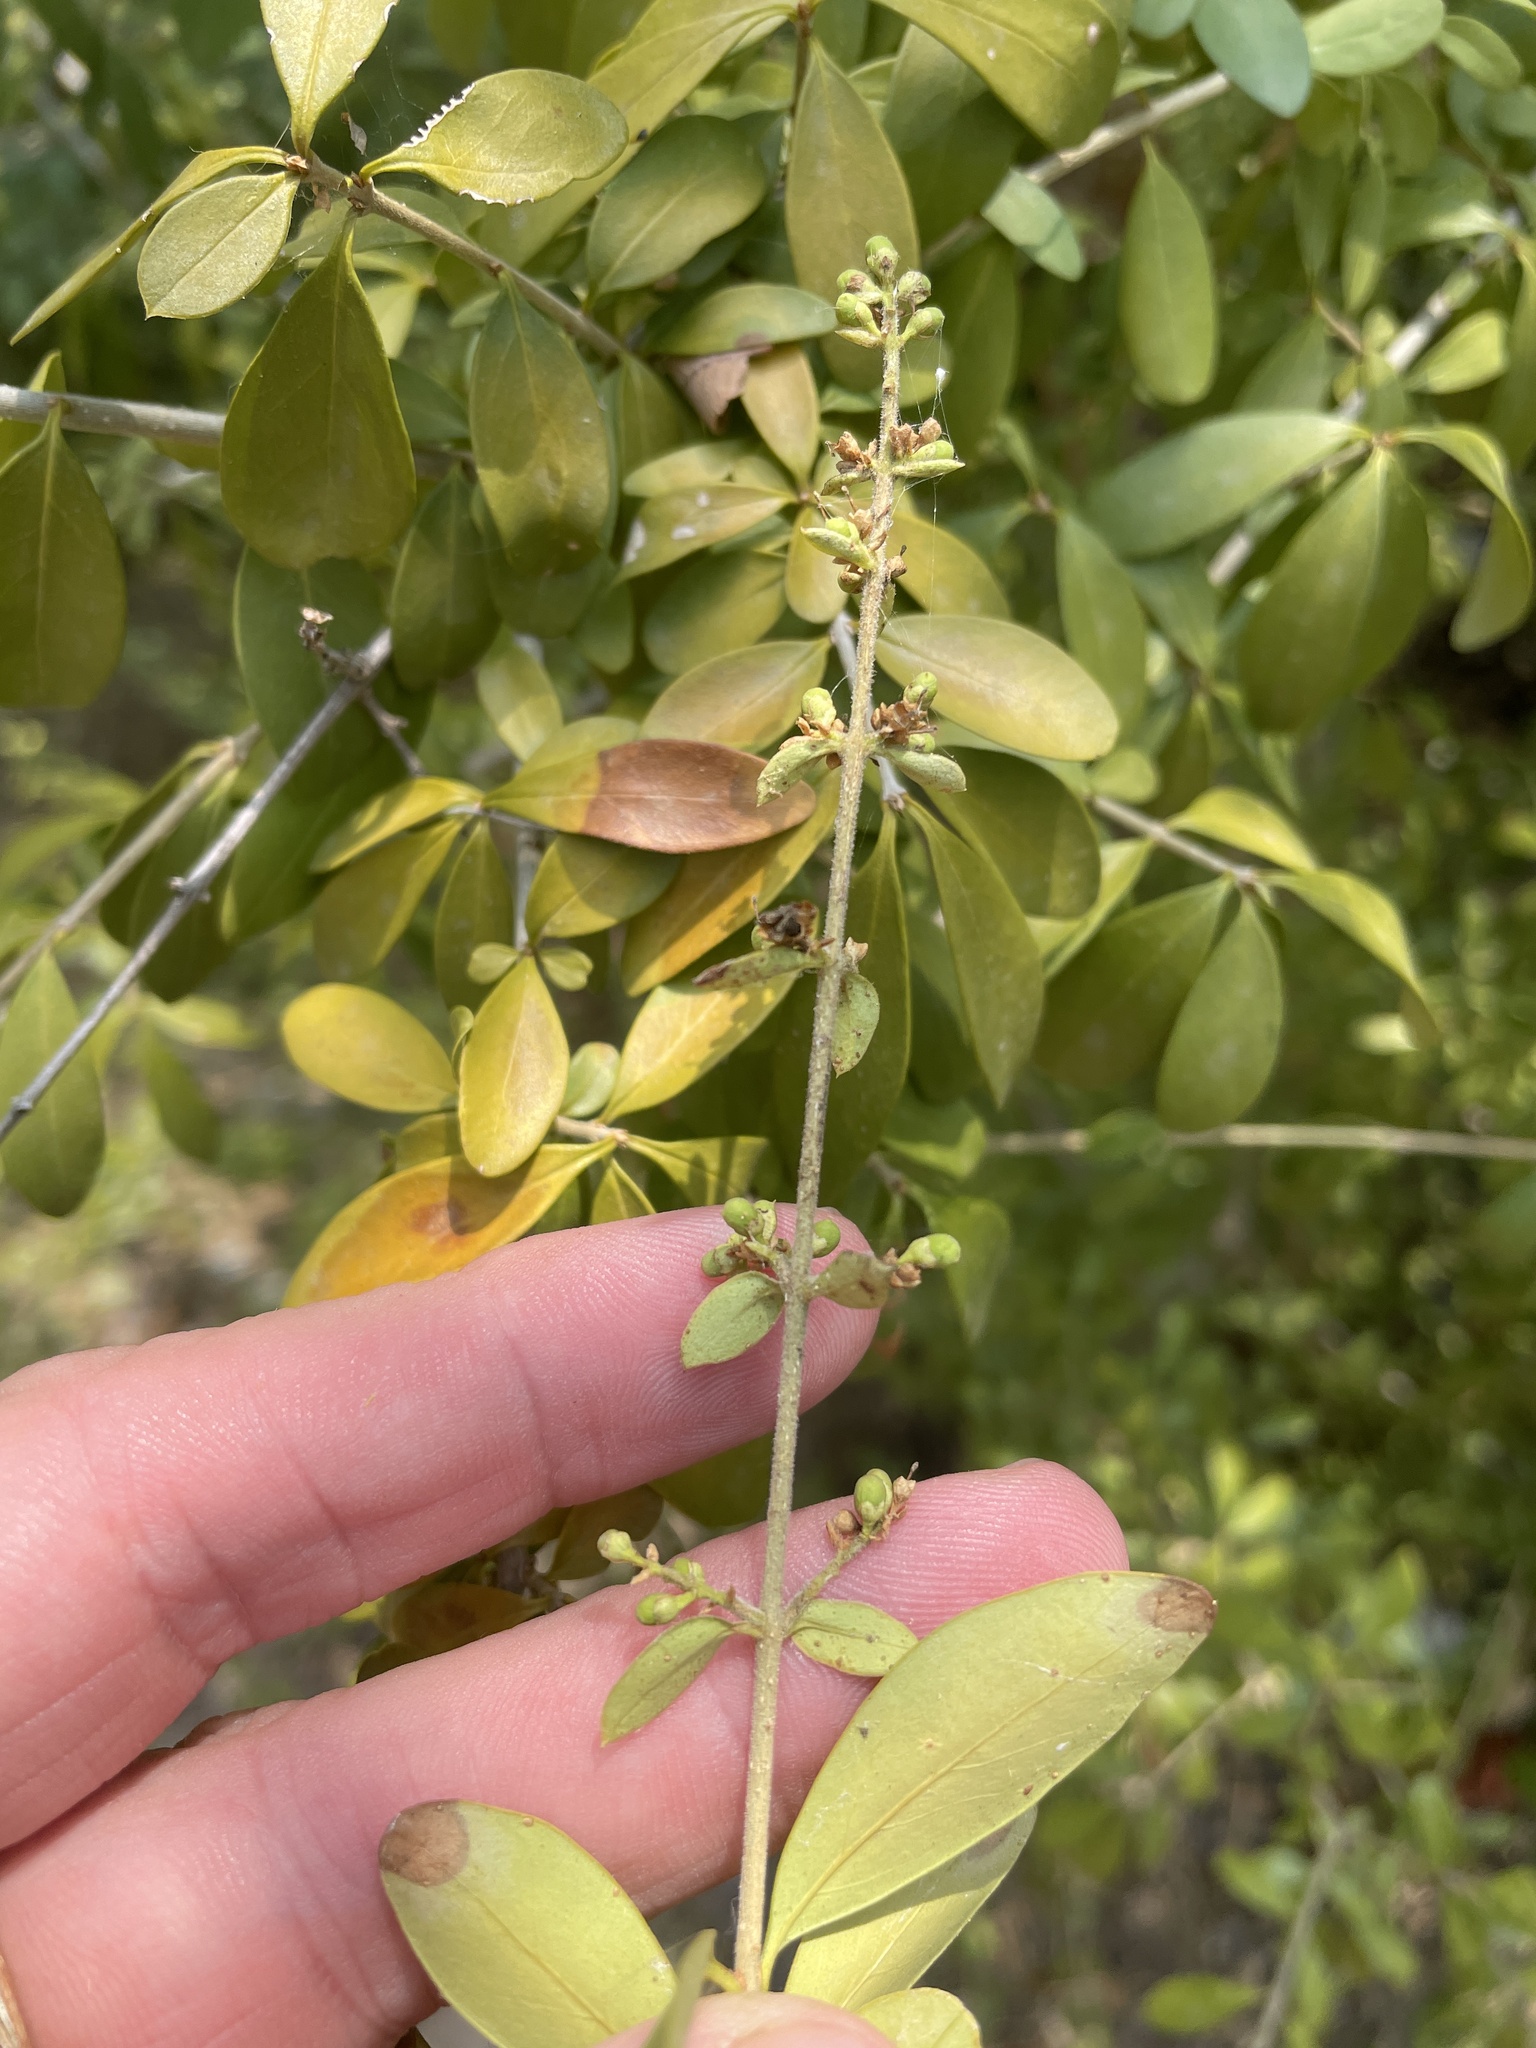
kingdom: Plantae
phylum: Tracheophyta
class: Magnoliopsida
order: Lamiales
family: Oleaceae
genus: Ligustrum
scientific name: Ligustrum quihoui
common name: Waxyleaf privet
